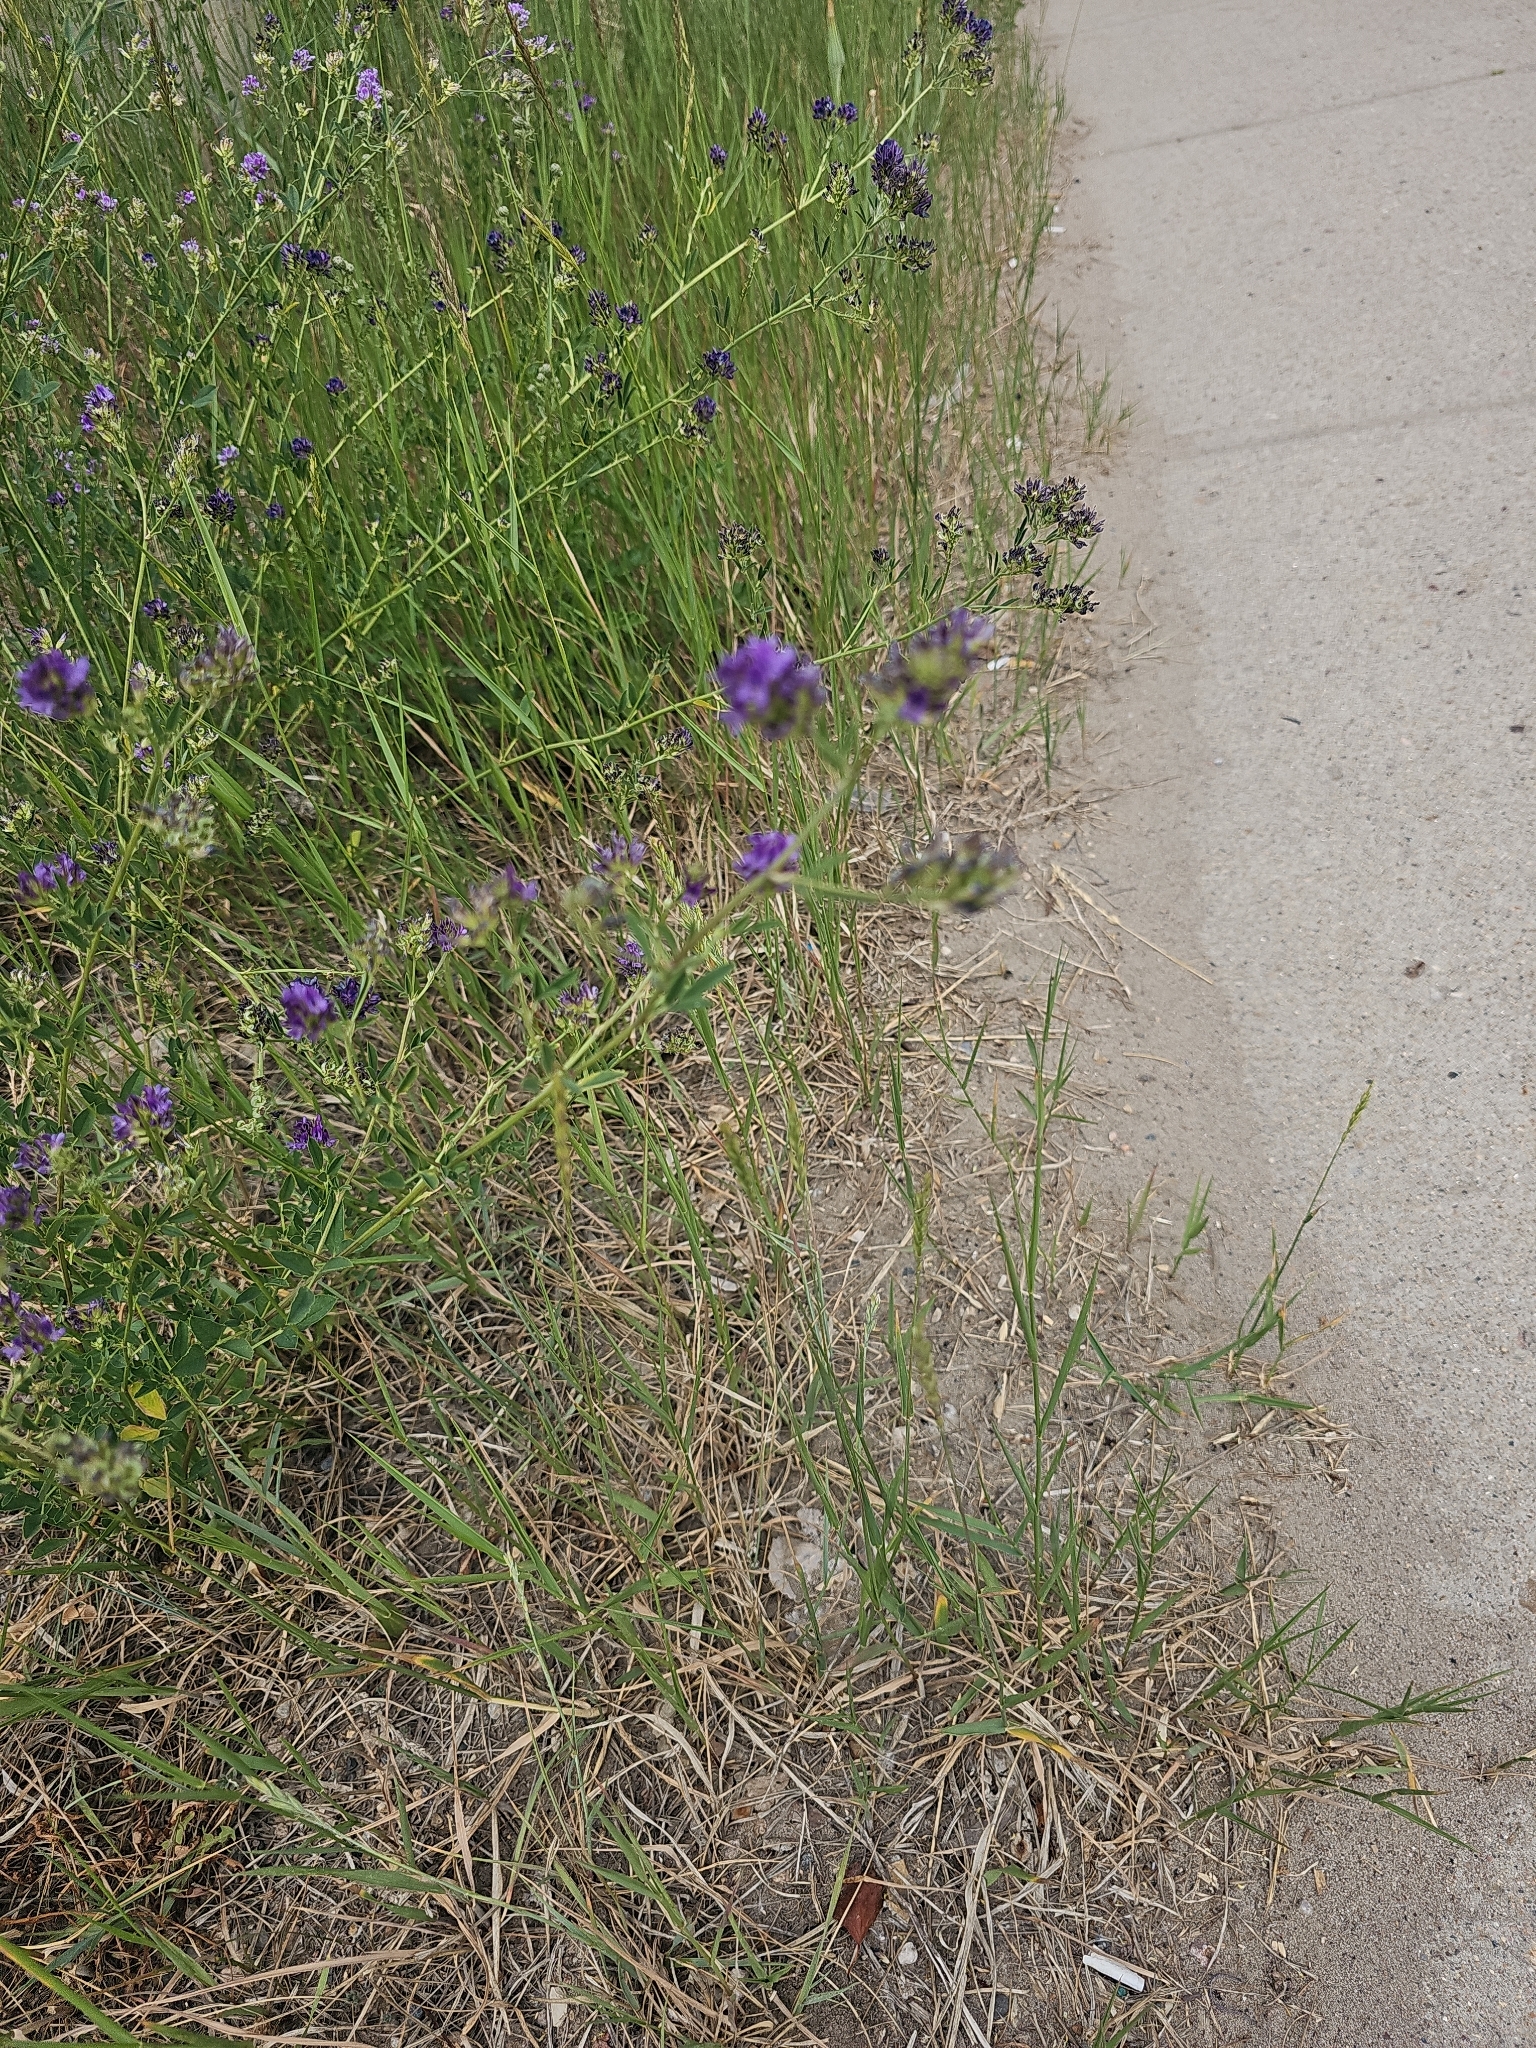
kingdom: Plantae
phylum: Tracheophyta
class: Magnoliopsida
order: Fabales
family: Fabaceae
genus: Medicago
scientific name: Medicago sativa
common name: Alfalfa
